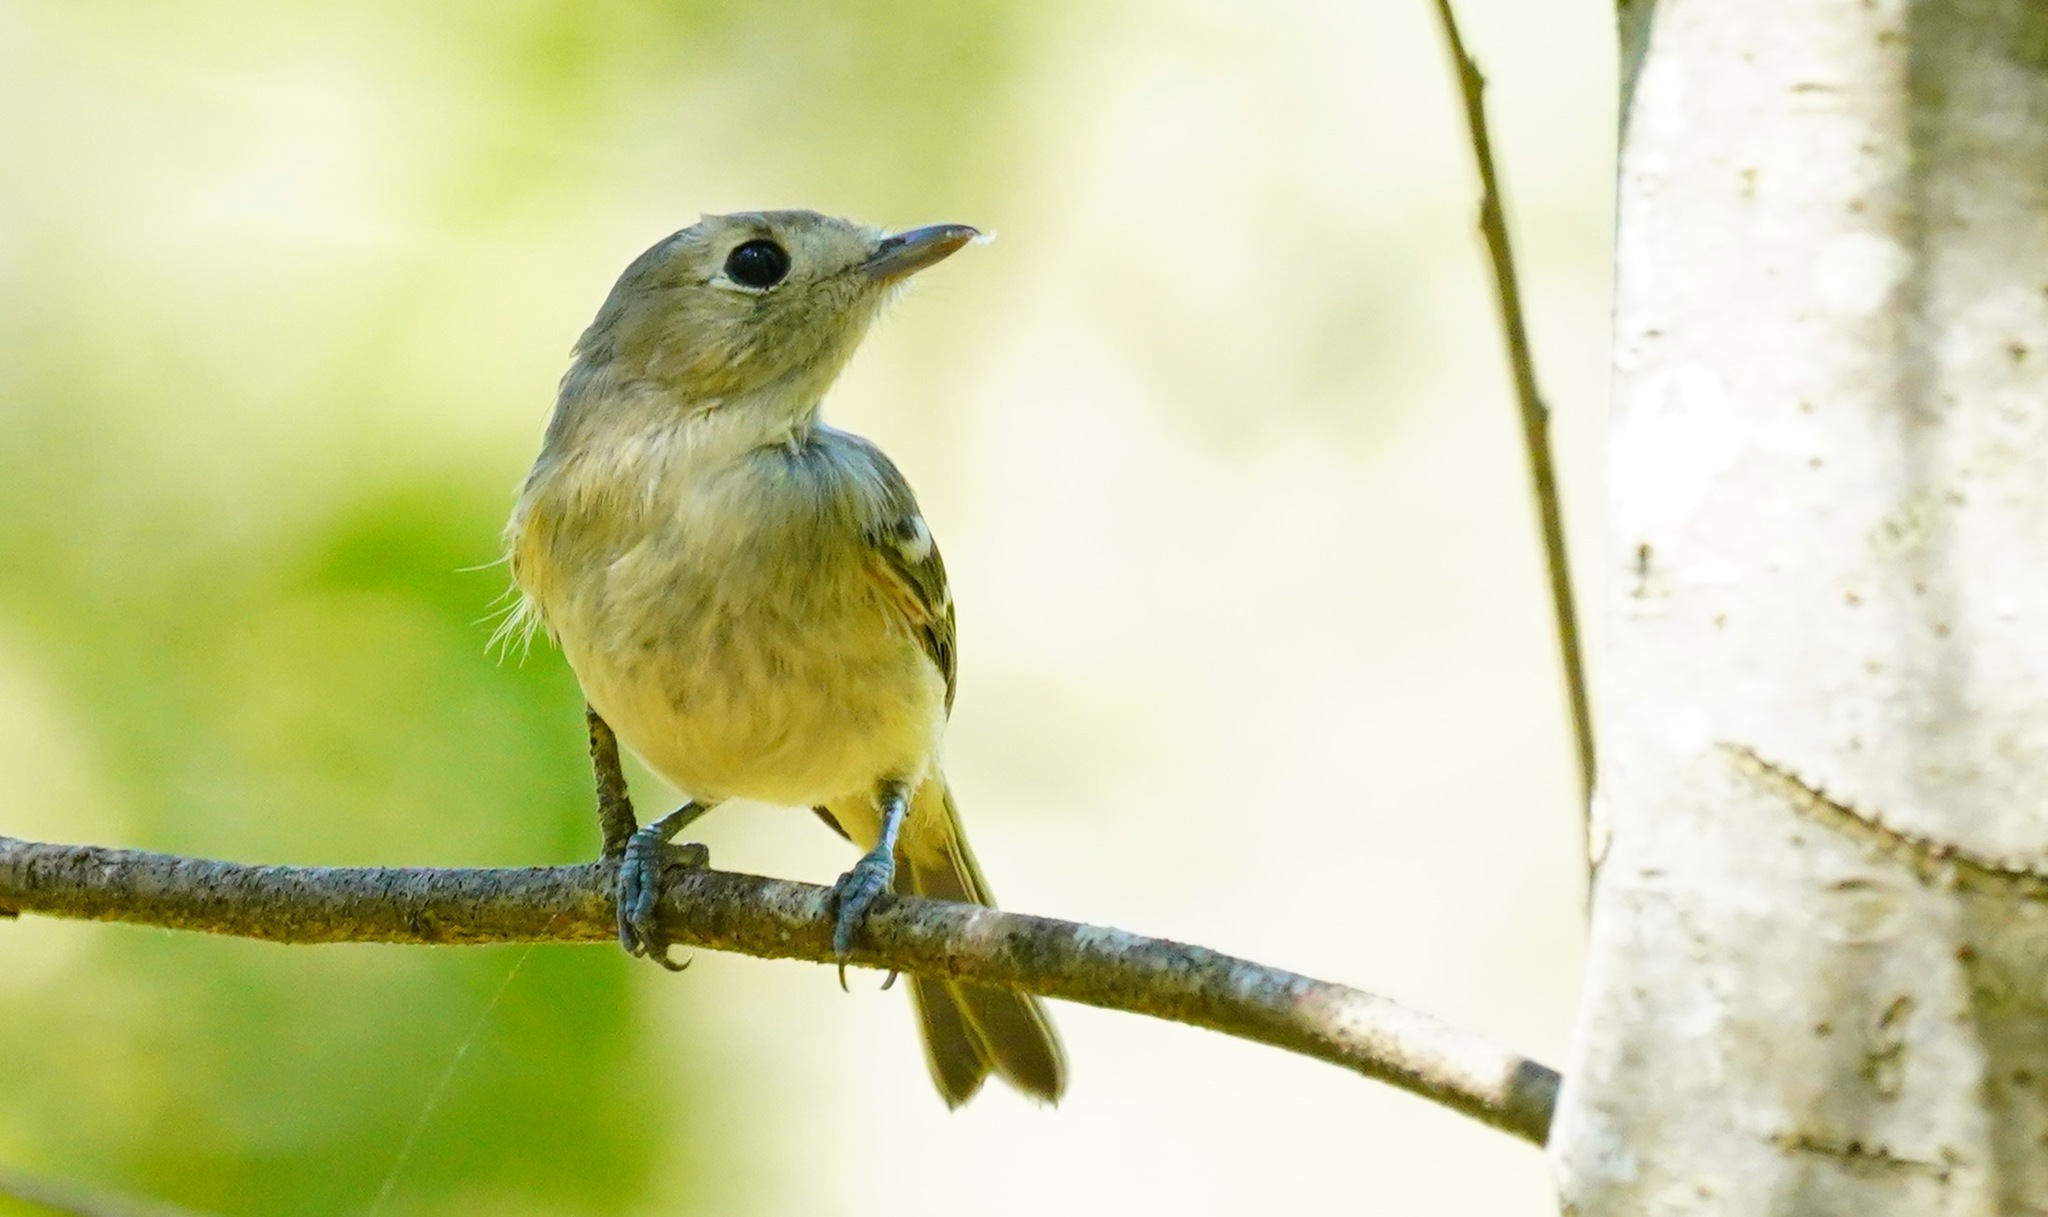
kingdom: Animalia
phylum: Chordata
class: Aves
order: Passeriformes
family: Vireonidae
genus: Vireo
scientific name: Vireo huttoni
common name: Hutton's vireo
